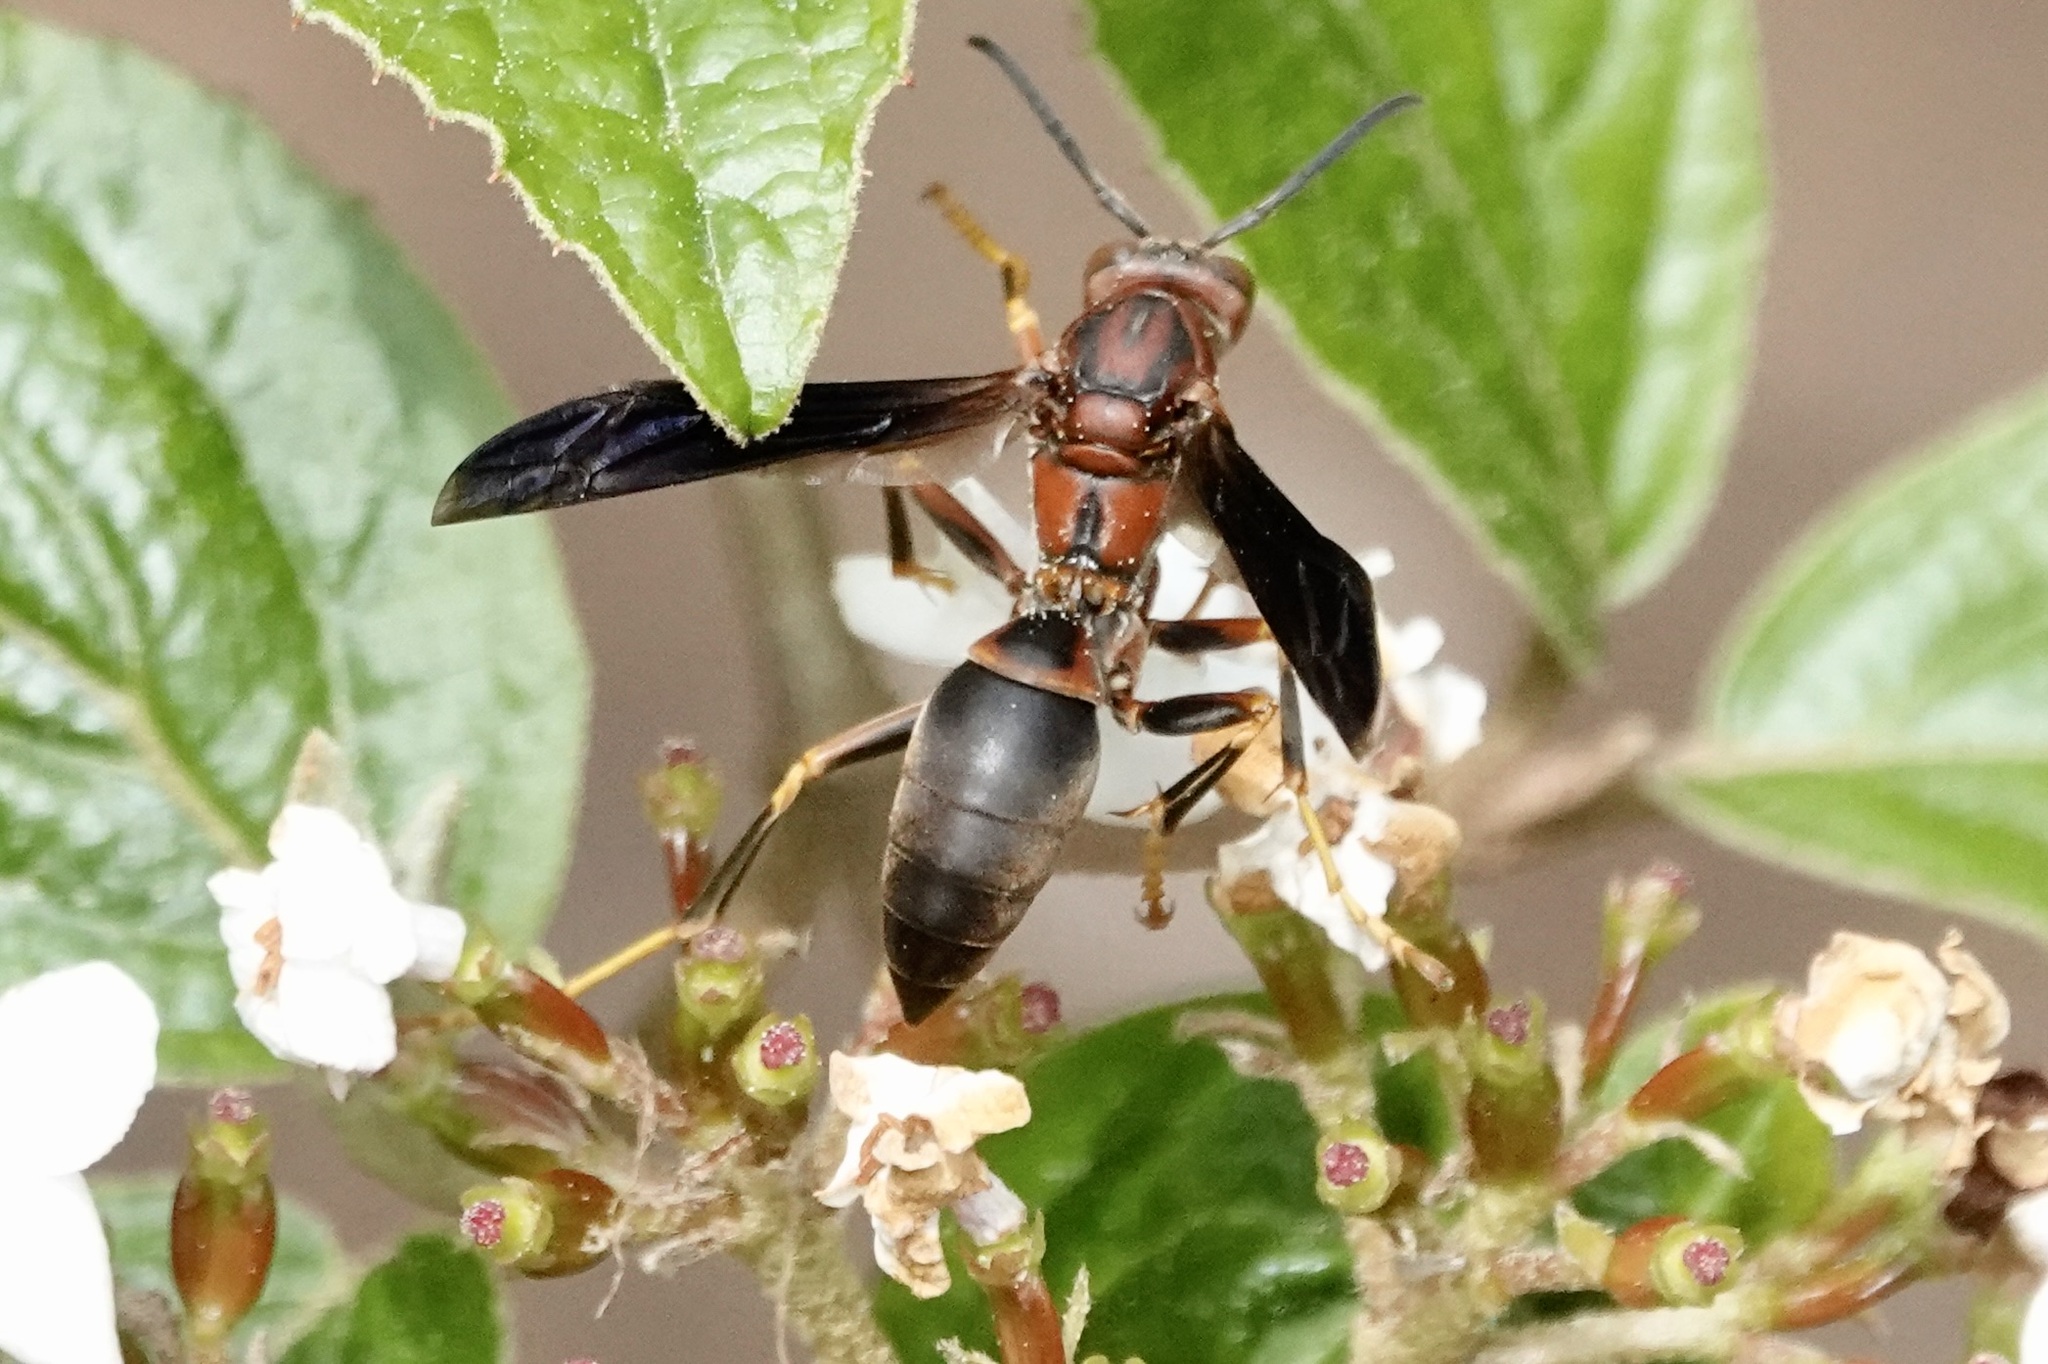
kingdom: Animalia
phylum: Arthropoda
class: Insecta
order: Hymenoptera
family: Eumenidae
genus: Polistes
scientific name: Polistes metricus
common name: Metric paper wasp
